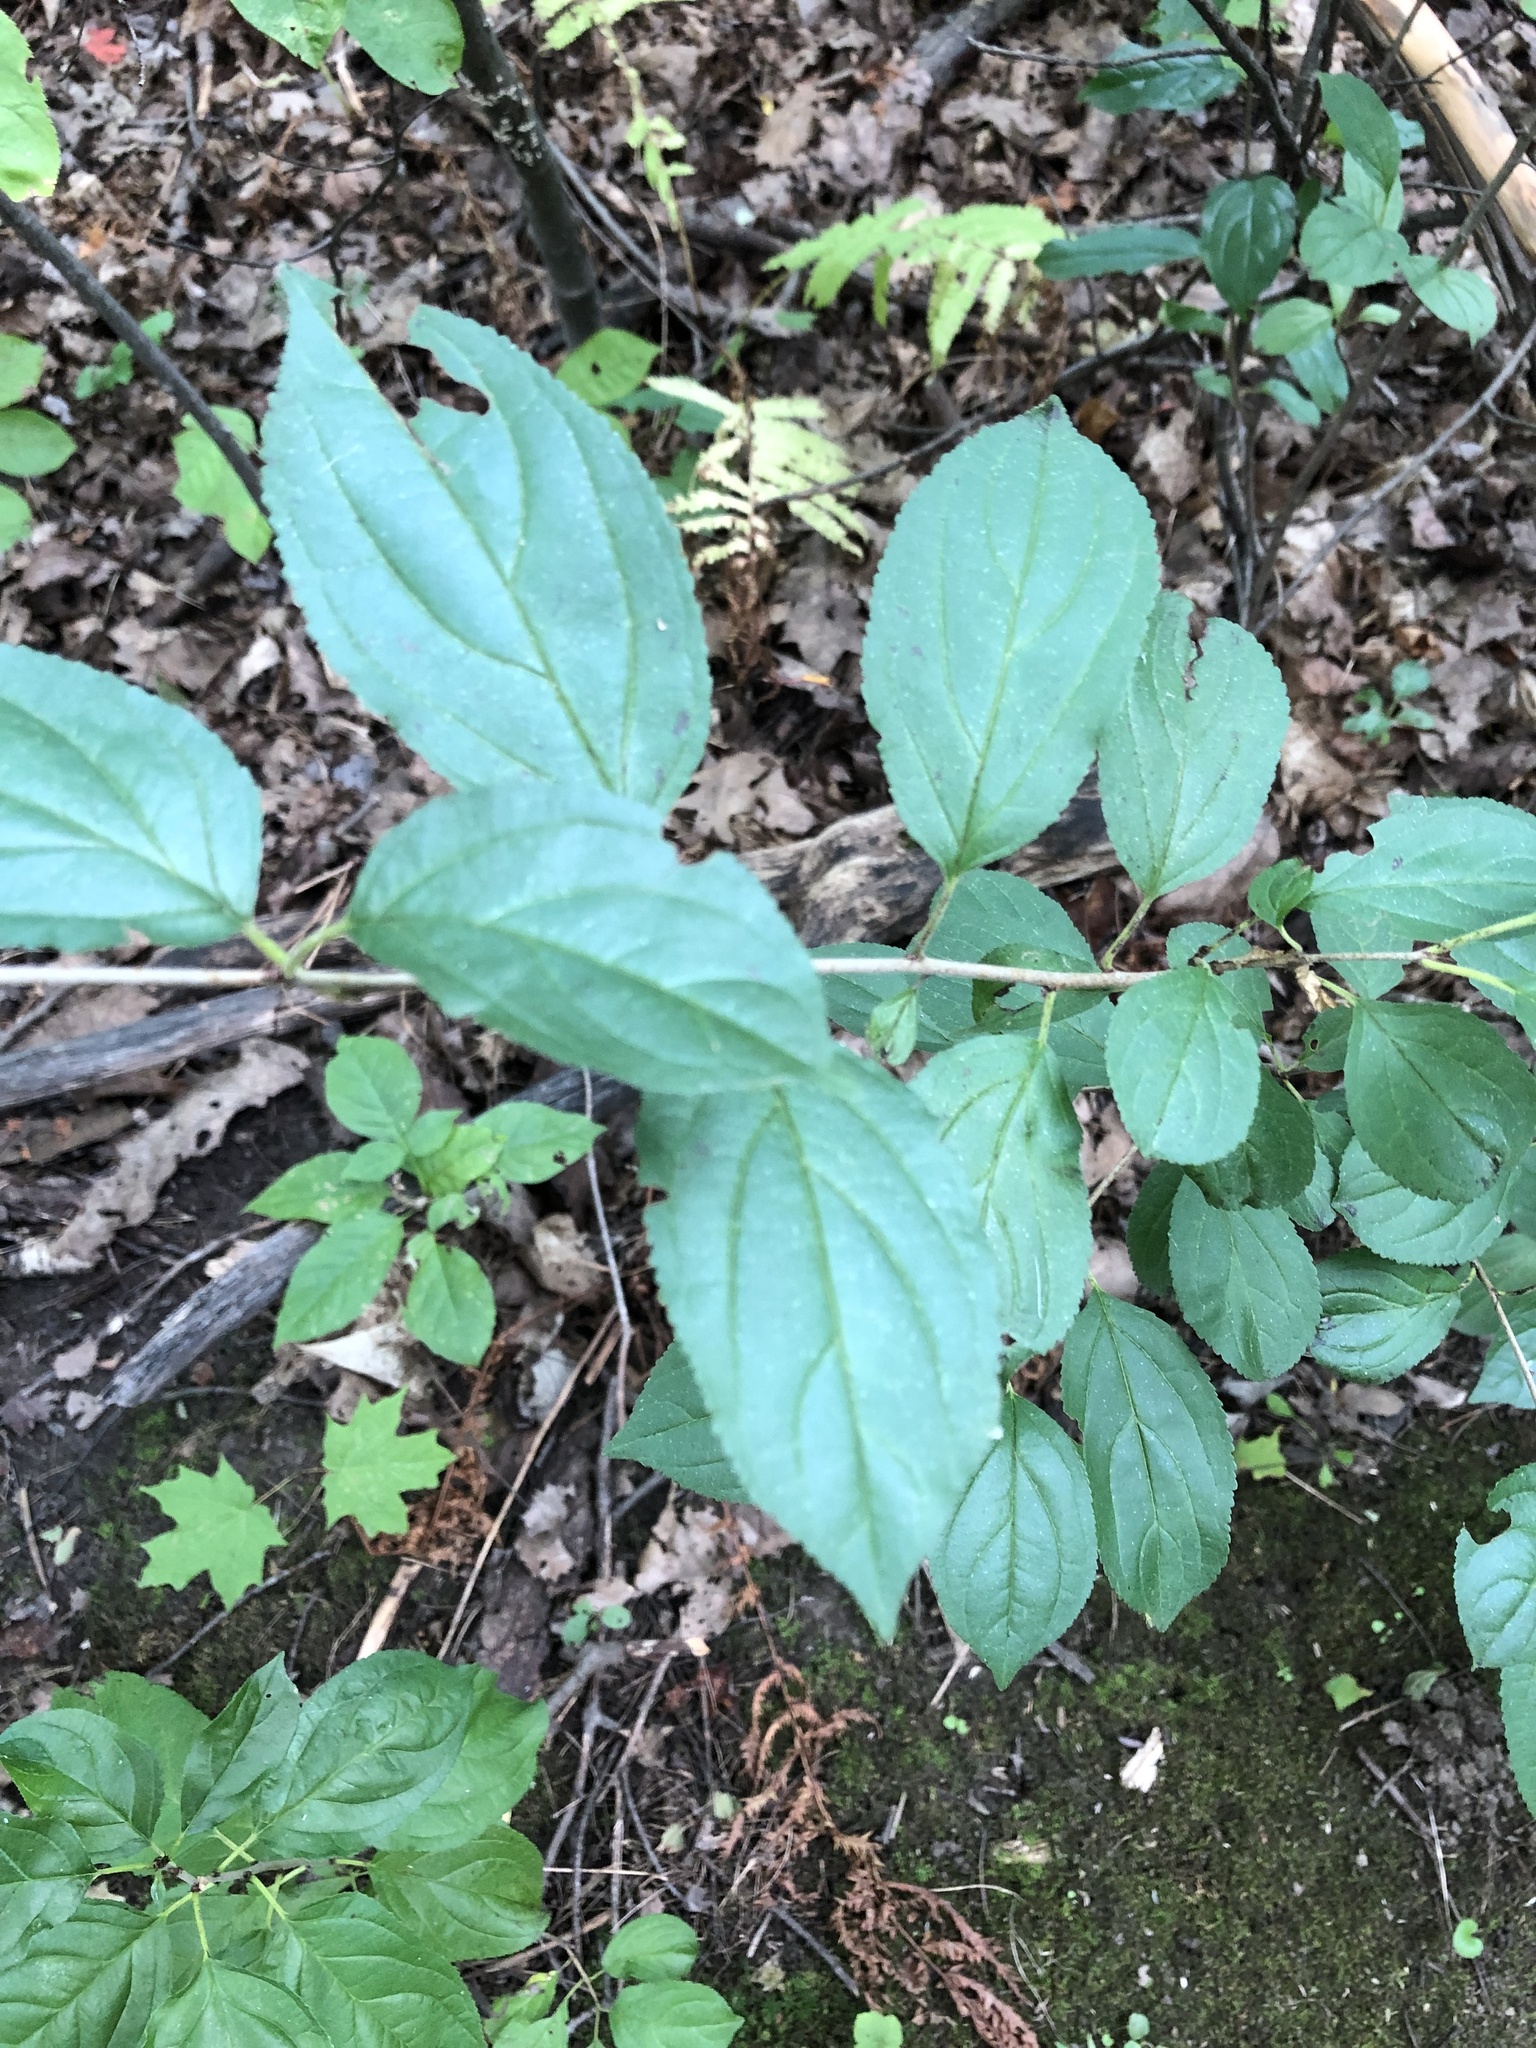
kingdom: Plantae
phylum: Tracheophyta
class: Magnoliopsida
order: Rosales
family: Rhamnaceae
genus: Rhamnus
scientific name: Rhamnus cathartica
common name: Common buckthorn
